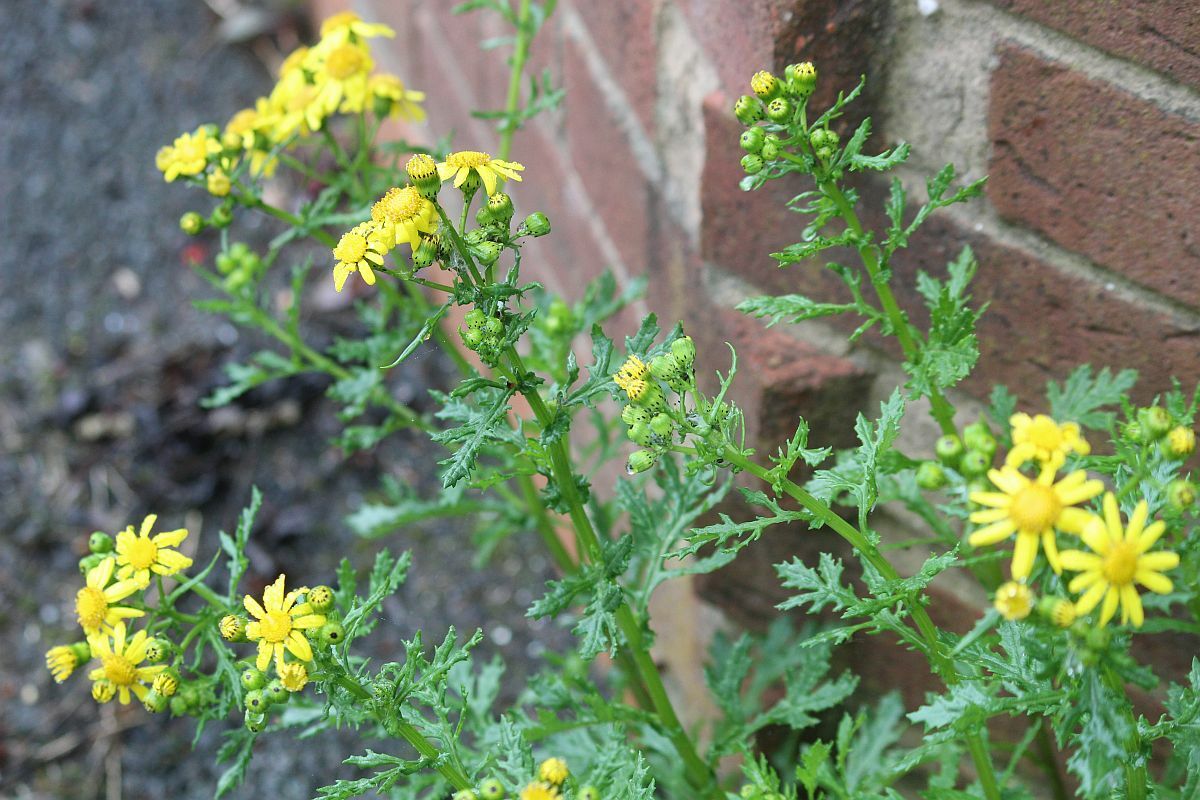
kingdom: Plantae
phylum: Tracheophyta
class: Magnoliopsida
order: Asterales
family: Asteraceae
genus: Senecio
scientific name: Senecio squalidus
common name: Oxford ragwort
